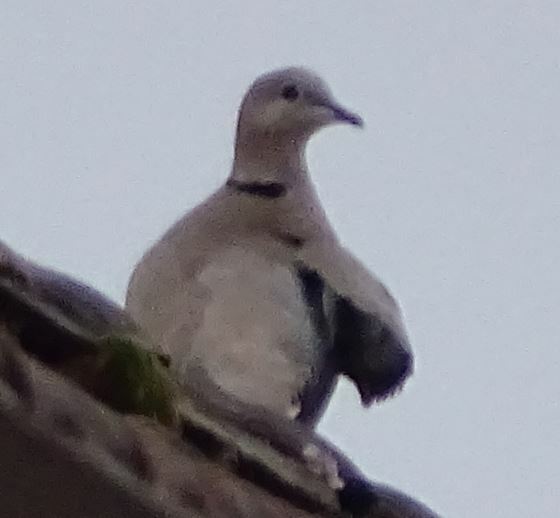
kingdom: Animalia
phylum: Chordata
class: Aves
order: Columbiformes
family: Columbidae
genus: Streptopelia
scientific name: Streptopelia decaocto
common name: Eurasian collared dove
